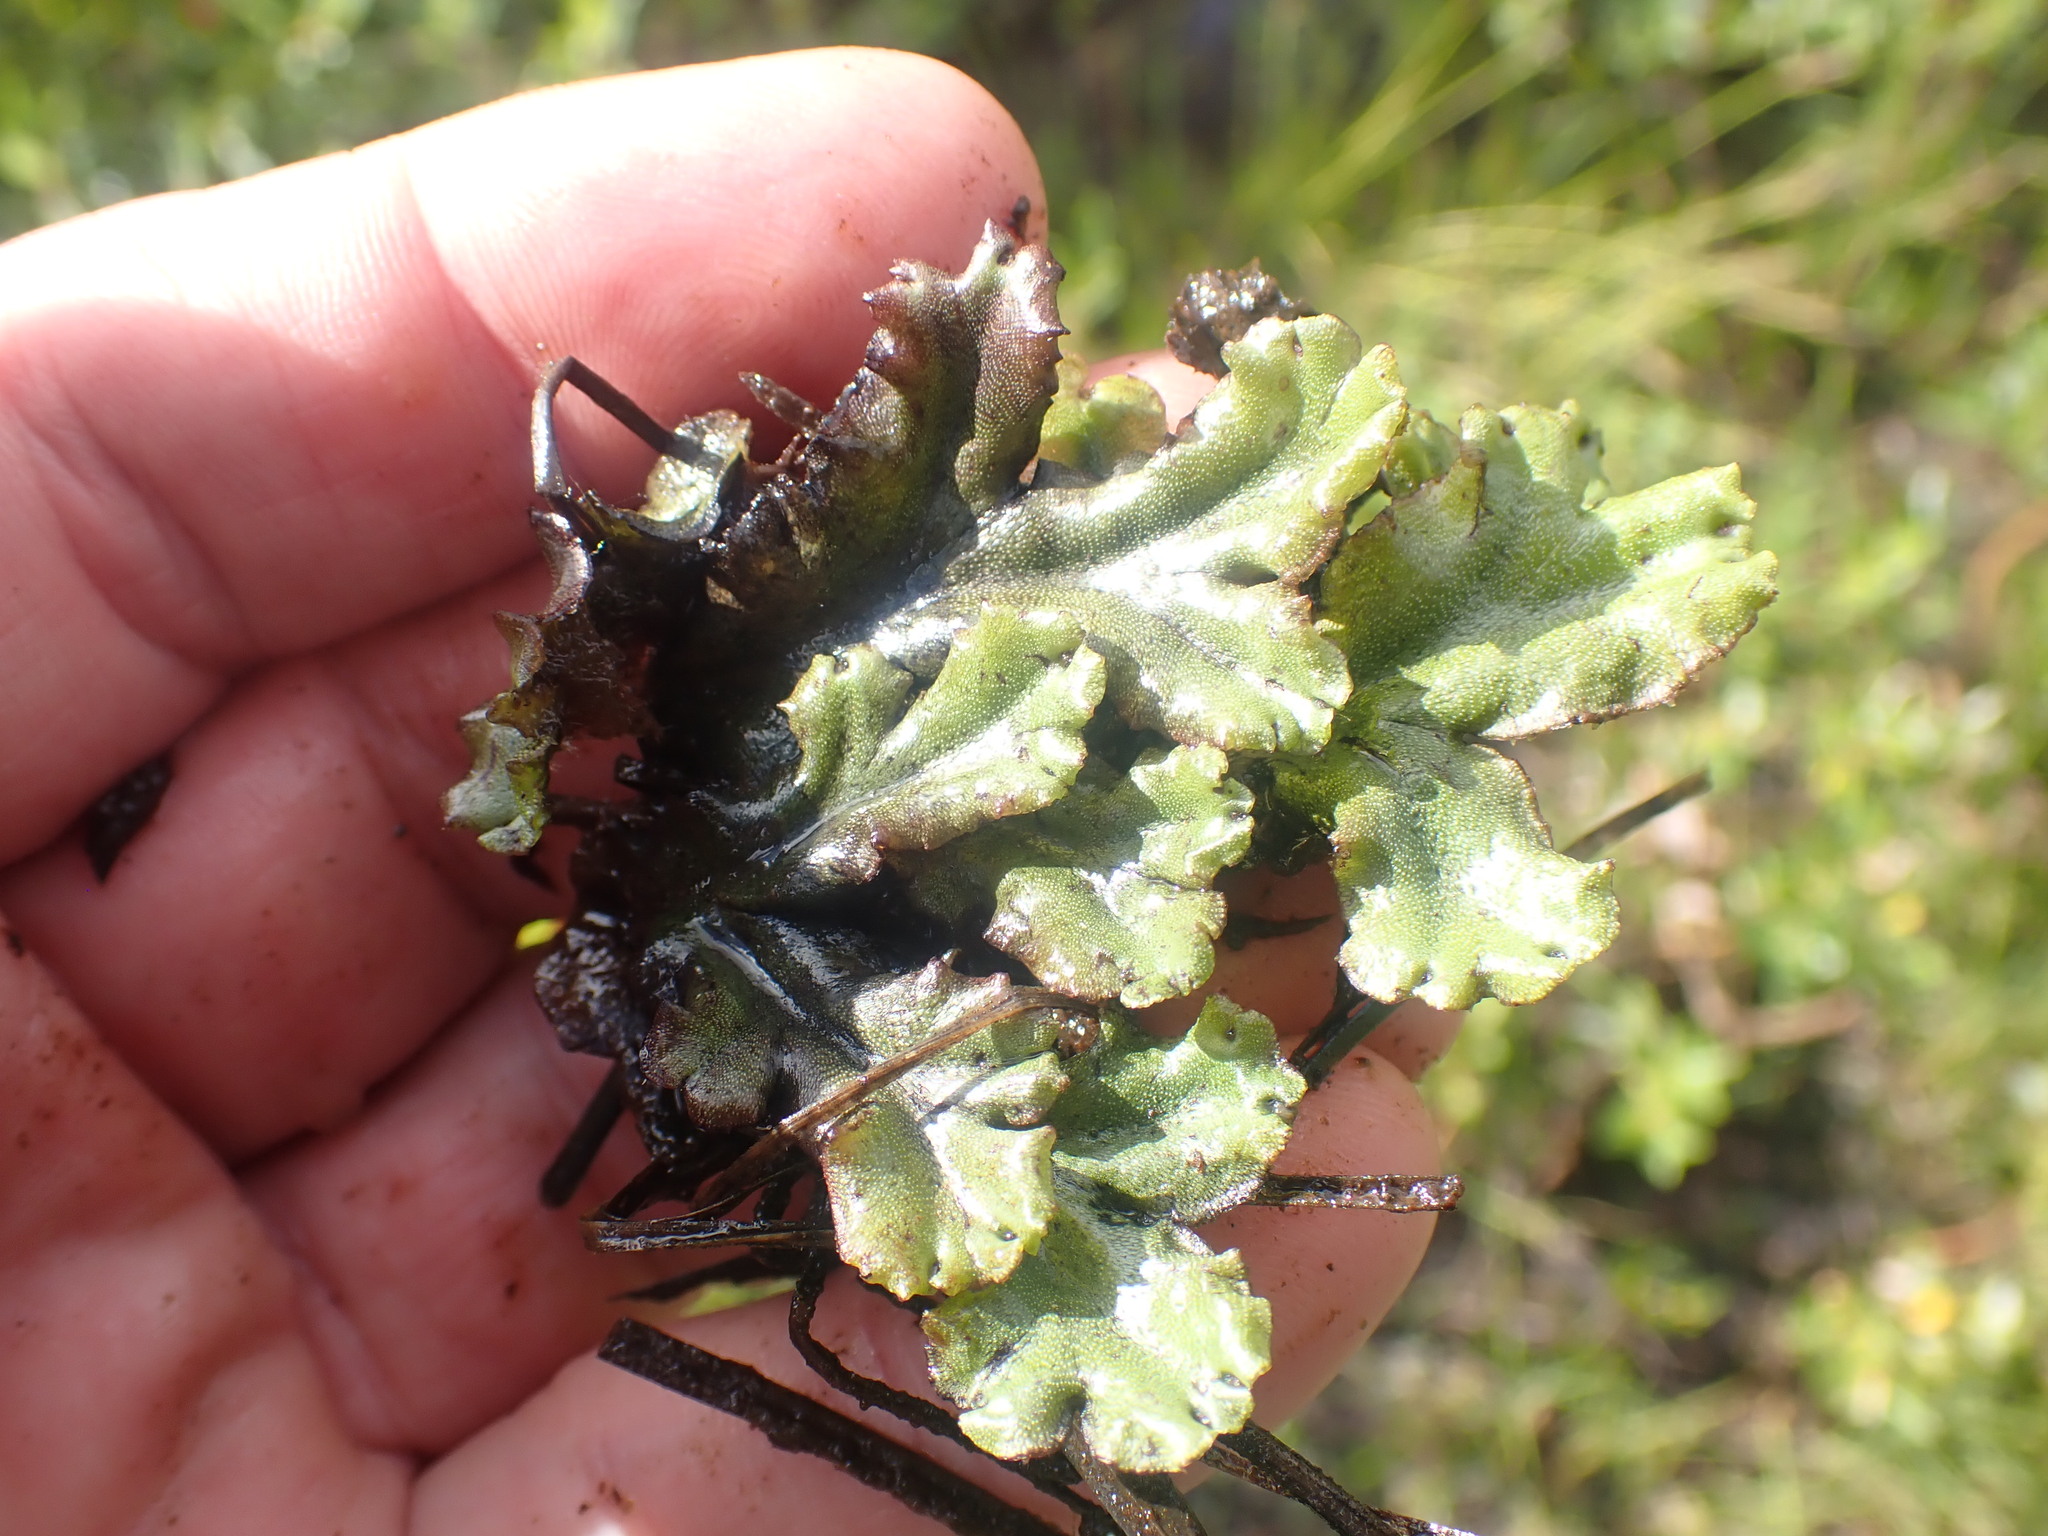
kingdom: Plantae
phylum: Marchantiophyta
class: Marchantiopsida
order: Marchantiales
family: Marchantiaceae
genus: Marchantia
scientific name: Marchantia polymorpha
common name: Common liverwort
